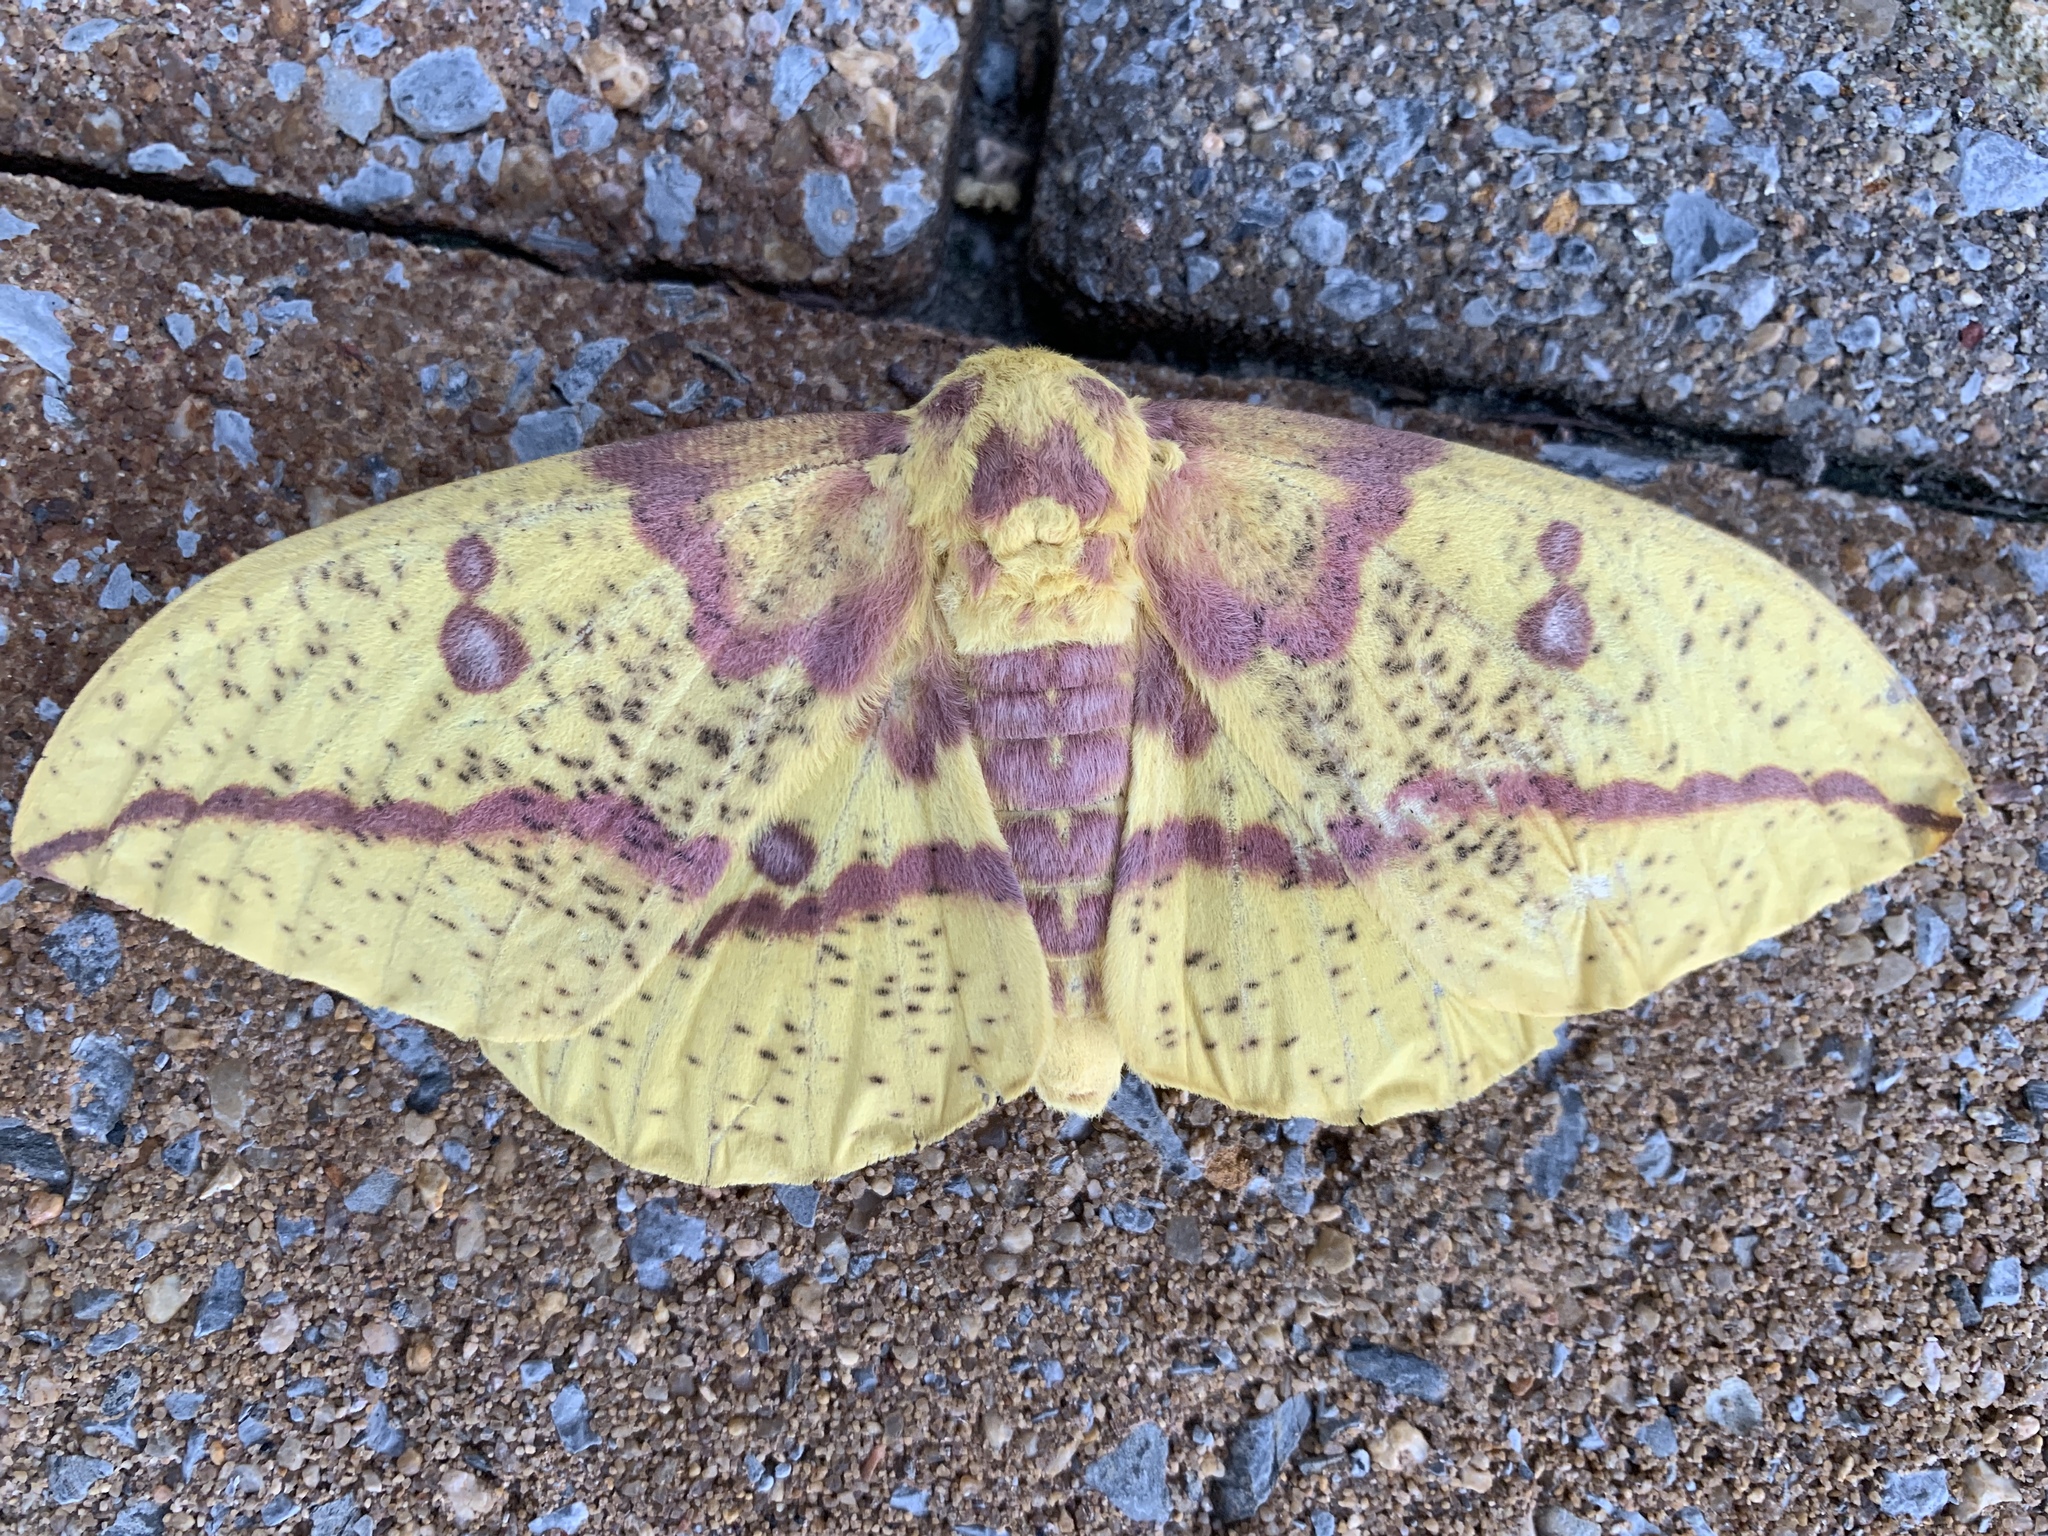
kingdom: Animalia
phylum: Arthropoda
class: Insecta
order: Lepidoptera
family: Saturniidae
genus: Eacles
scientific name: Eacles imperialis
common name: Imperial moth
